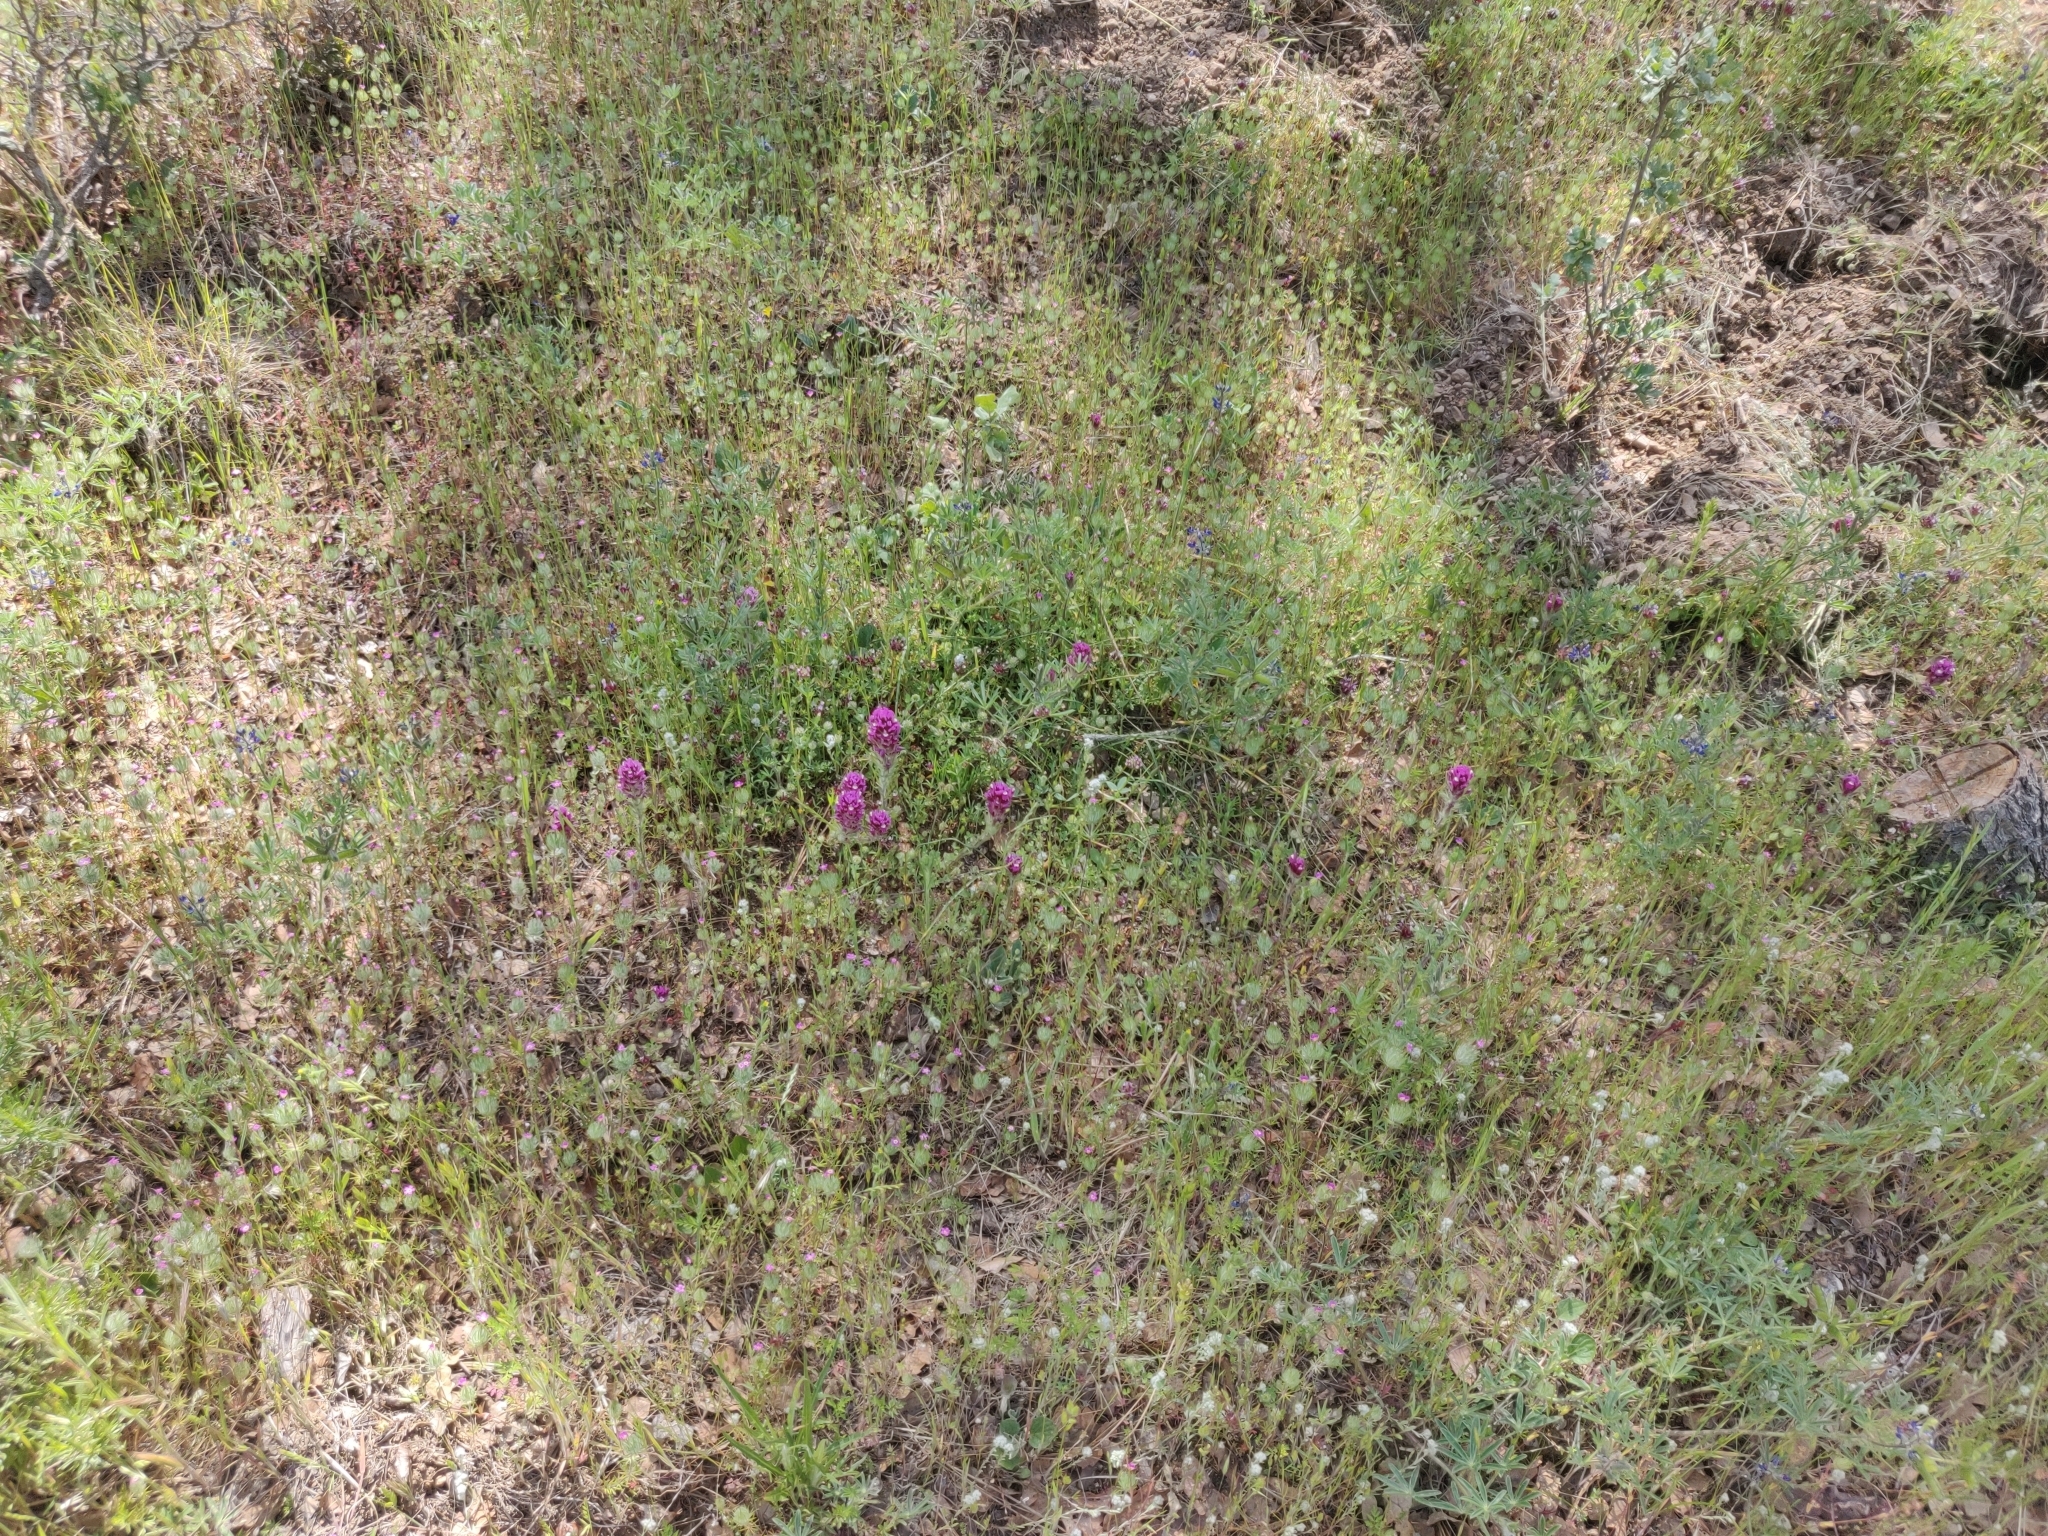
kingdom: Plantae
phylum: Tracheophyta
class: Magnoliopsida
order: Lamiales
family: Orobanchaceae
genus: Castilleja
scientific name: Castilleja exserta
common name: Purple owl-clover
